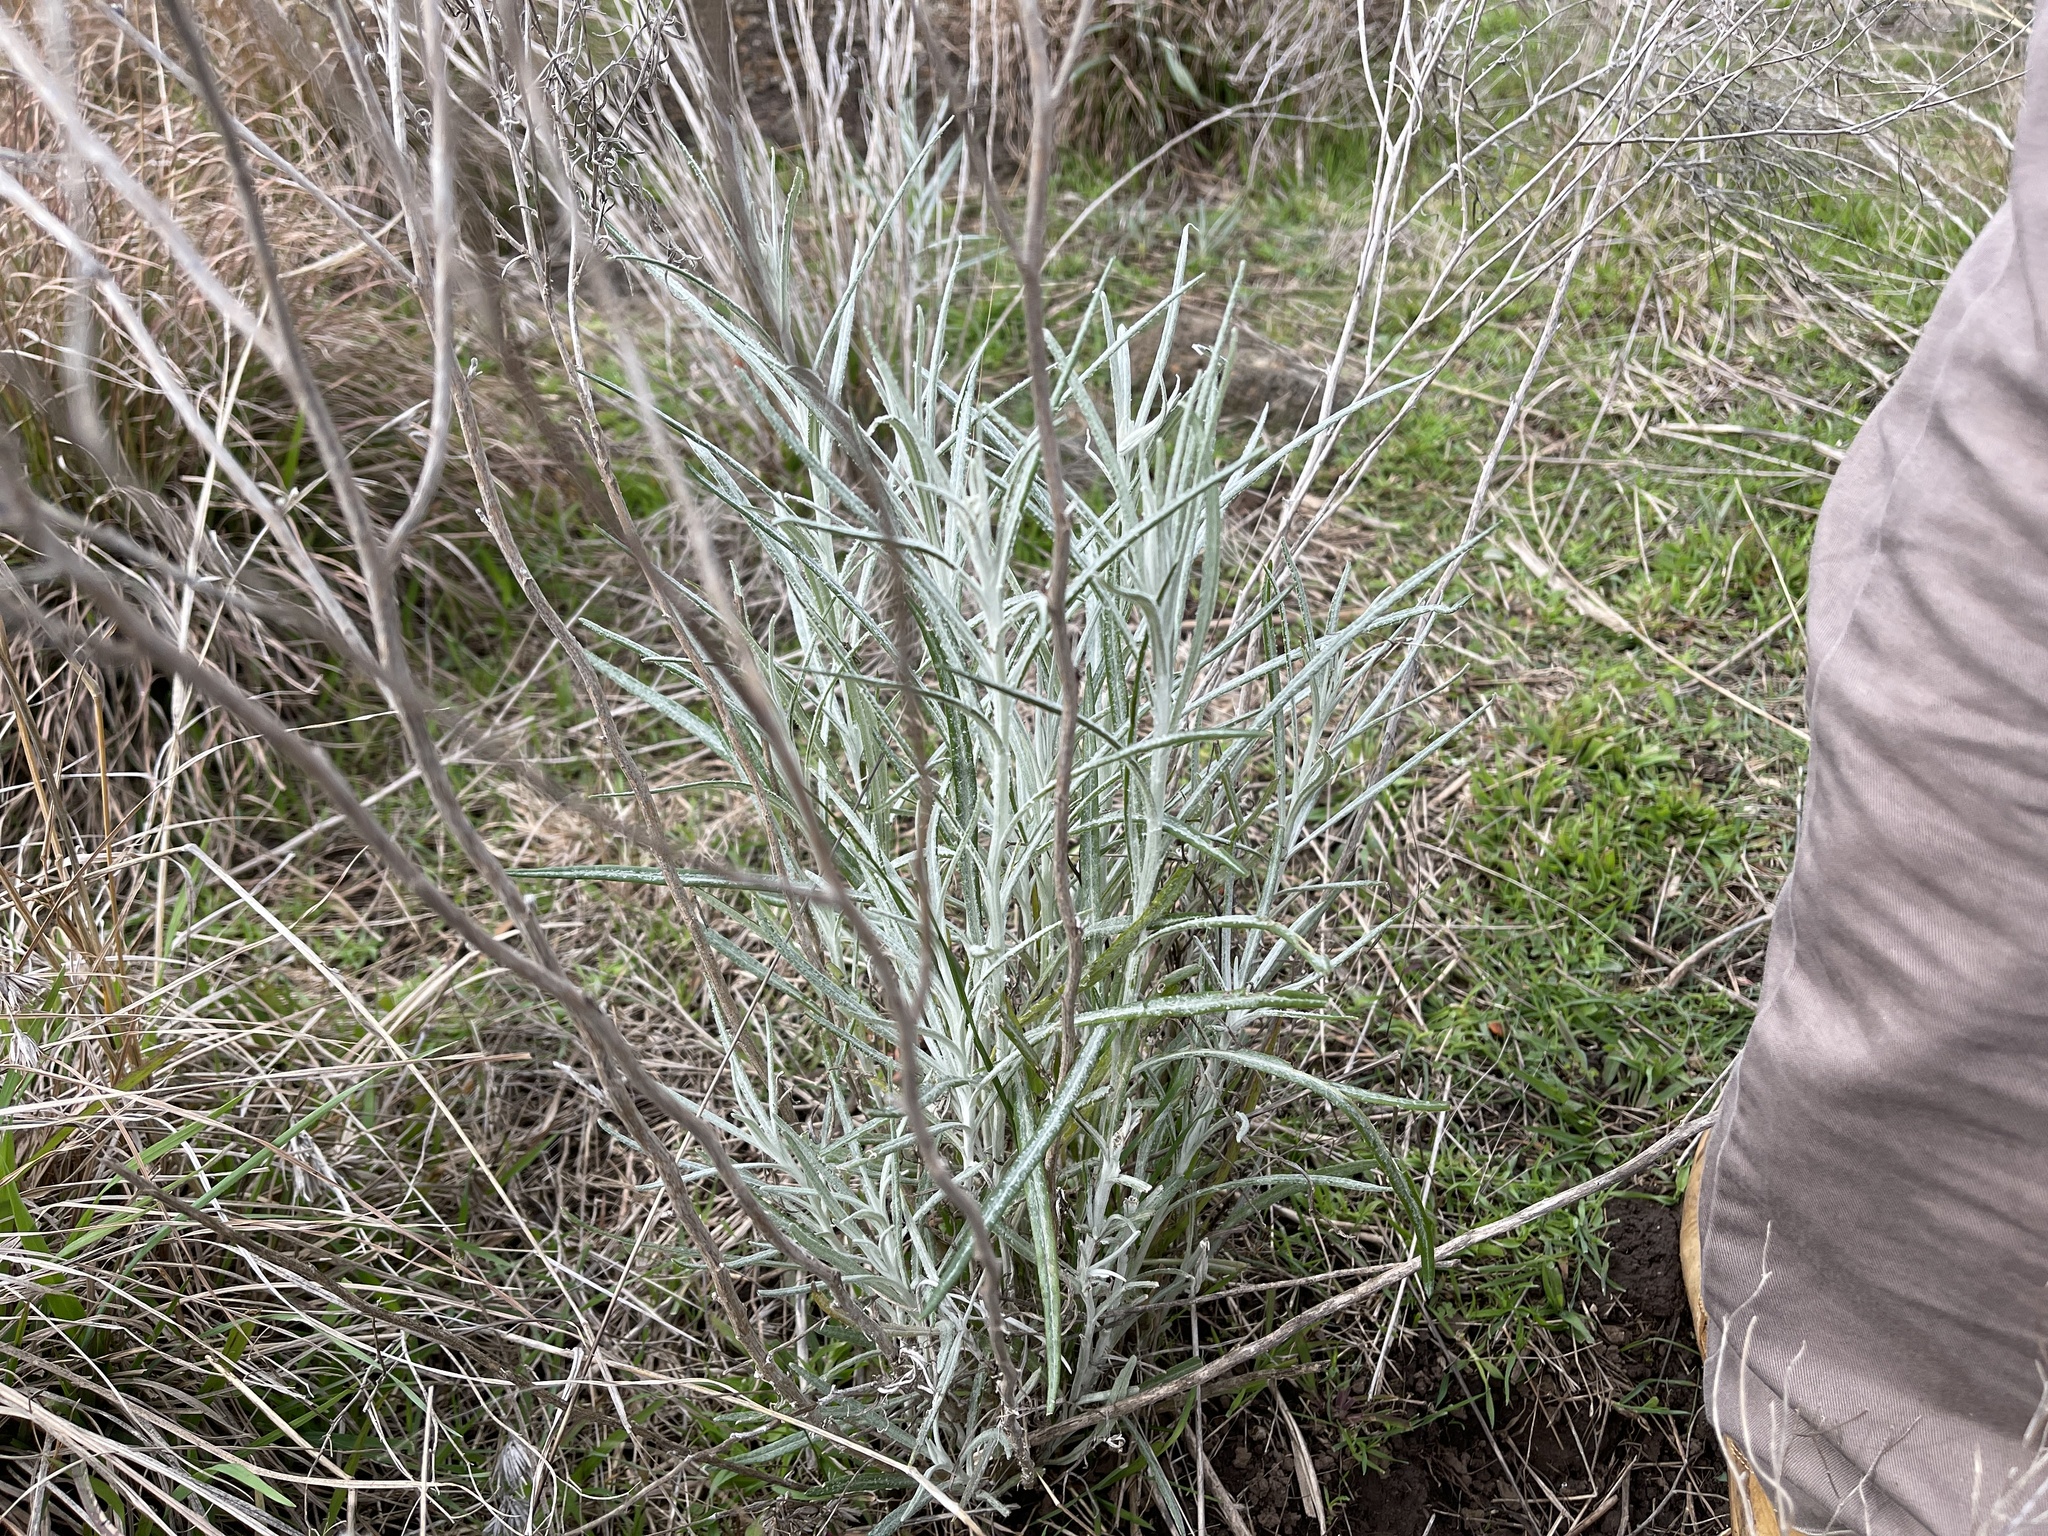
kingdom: Plantae
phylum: Tracheophyta
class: Magnoliopsida
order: Asterales
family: Asteraceae
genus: Senecio
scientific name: Senecio quadridentatus
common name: Cotton fireweed
